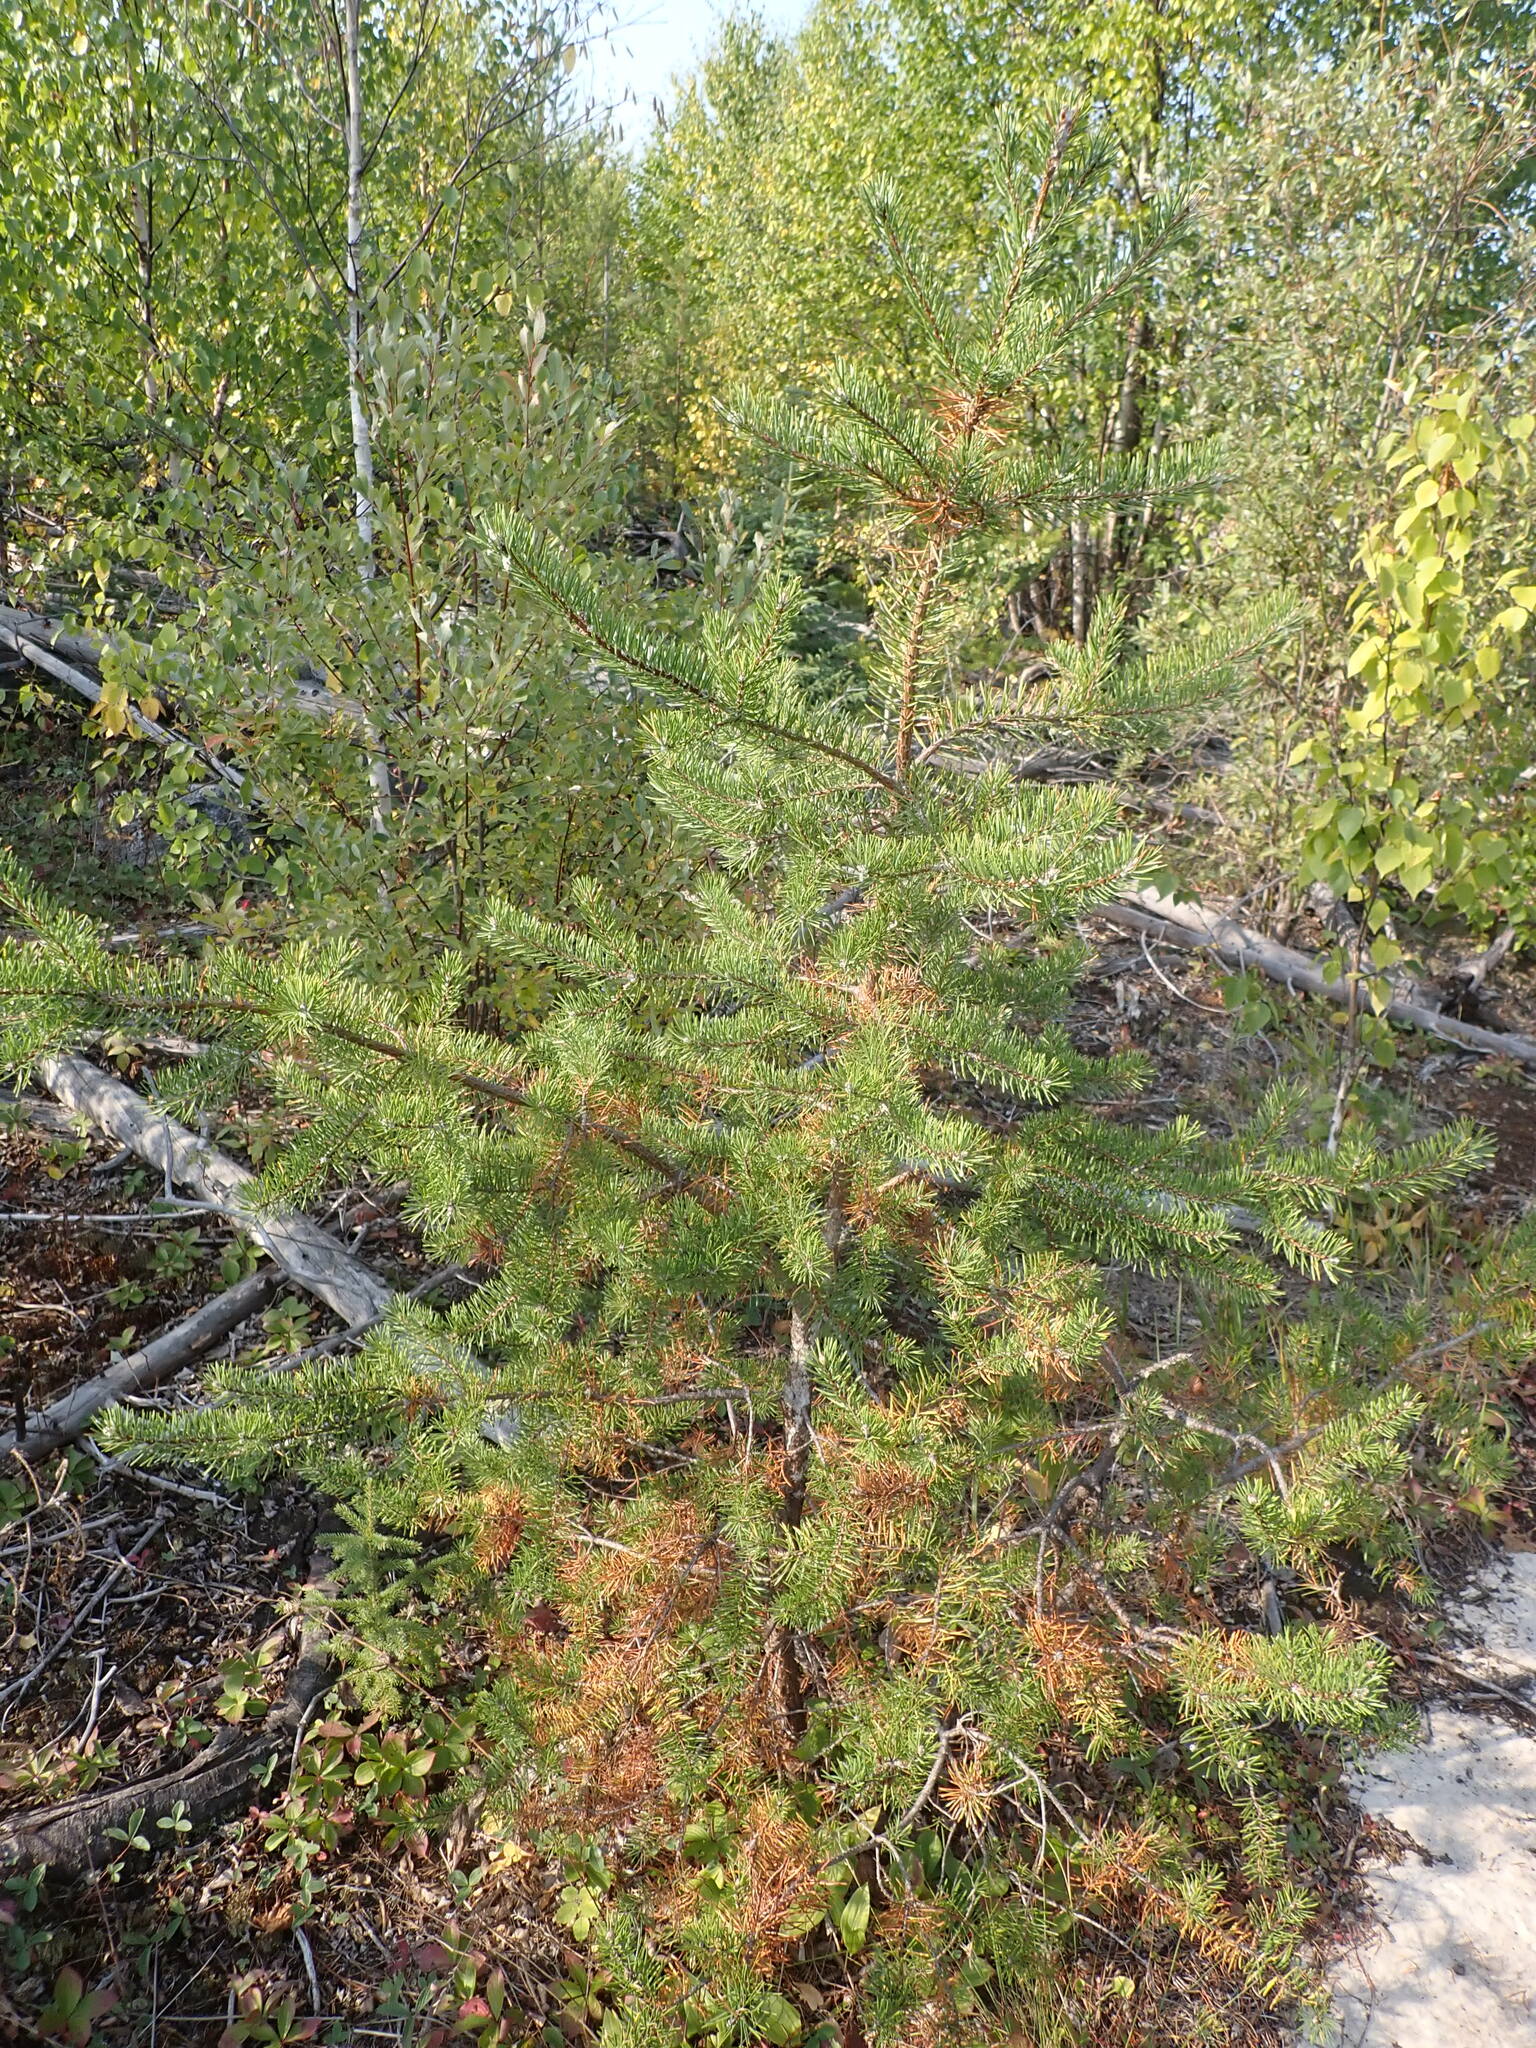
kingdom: Plantae
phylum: Tracheophyta
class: Pinopsida
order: Pinales
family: Pinaceae
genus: Pinus
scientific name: Pinus banksiana
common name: Jack pine
